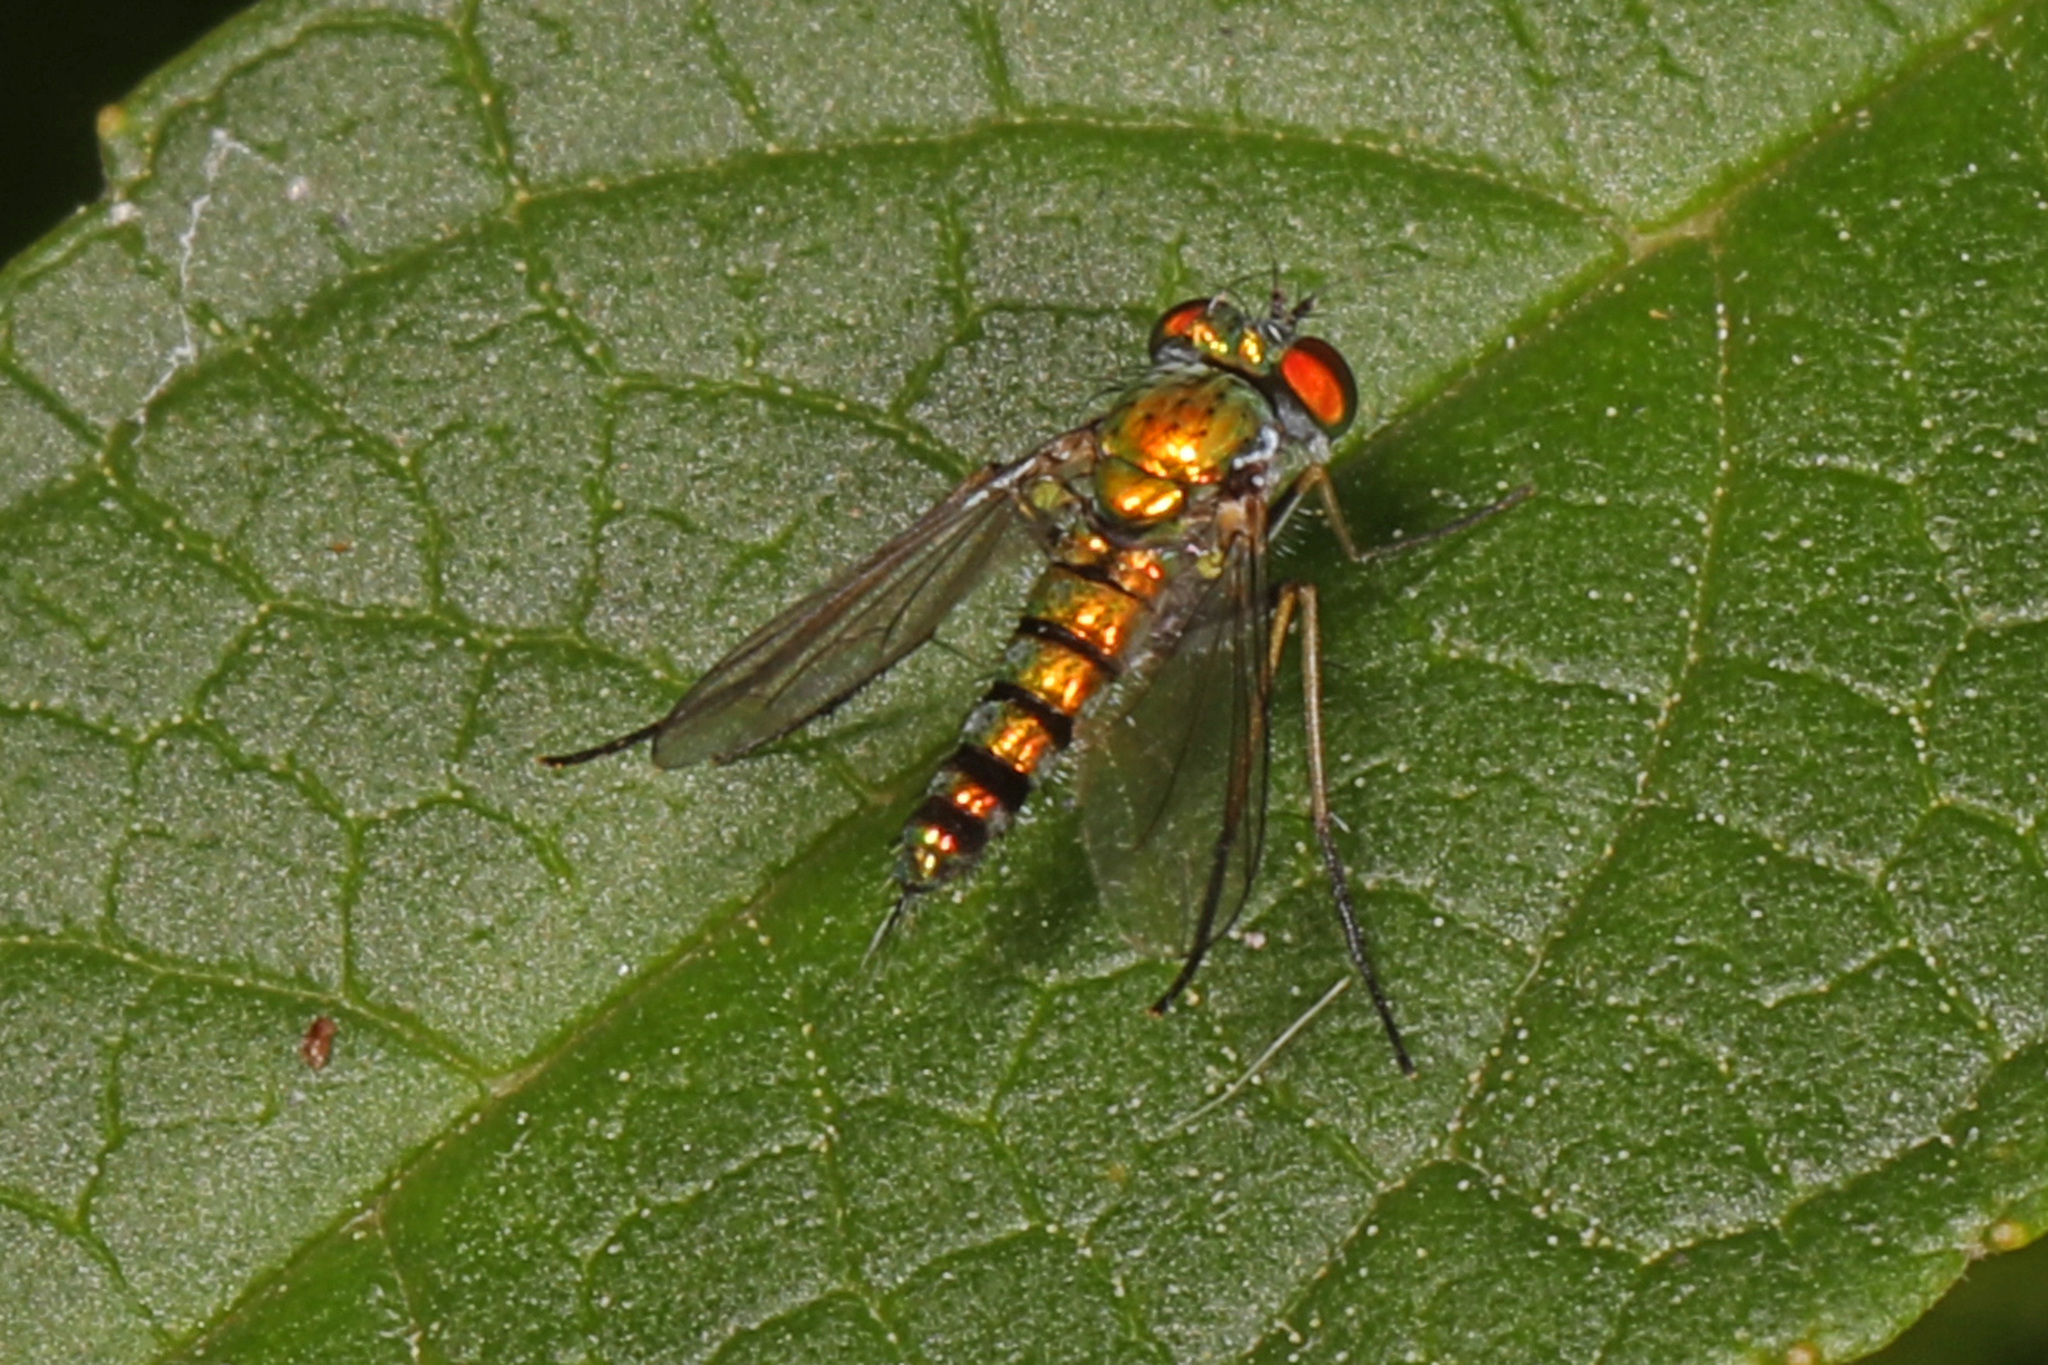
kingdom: Animalia
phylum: Arthropoda
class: Insecta
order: Diptera
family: Dolichopodidae
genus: Condylostylus
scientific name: Condylostylus caudatus
